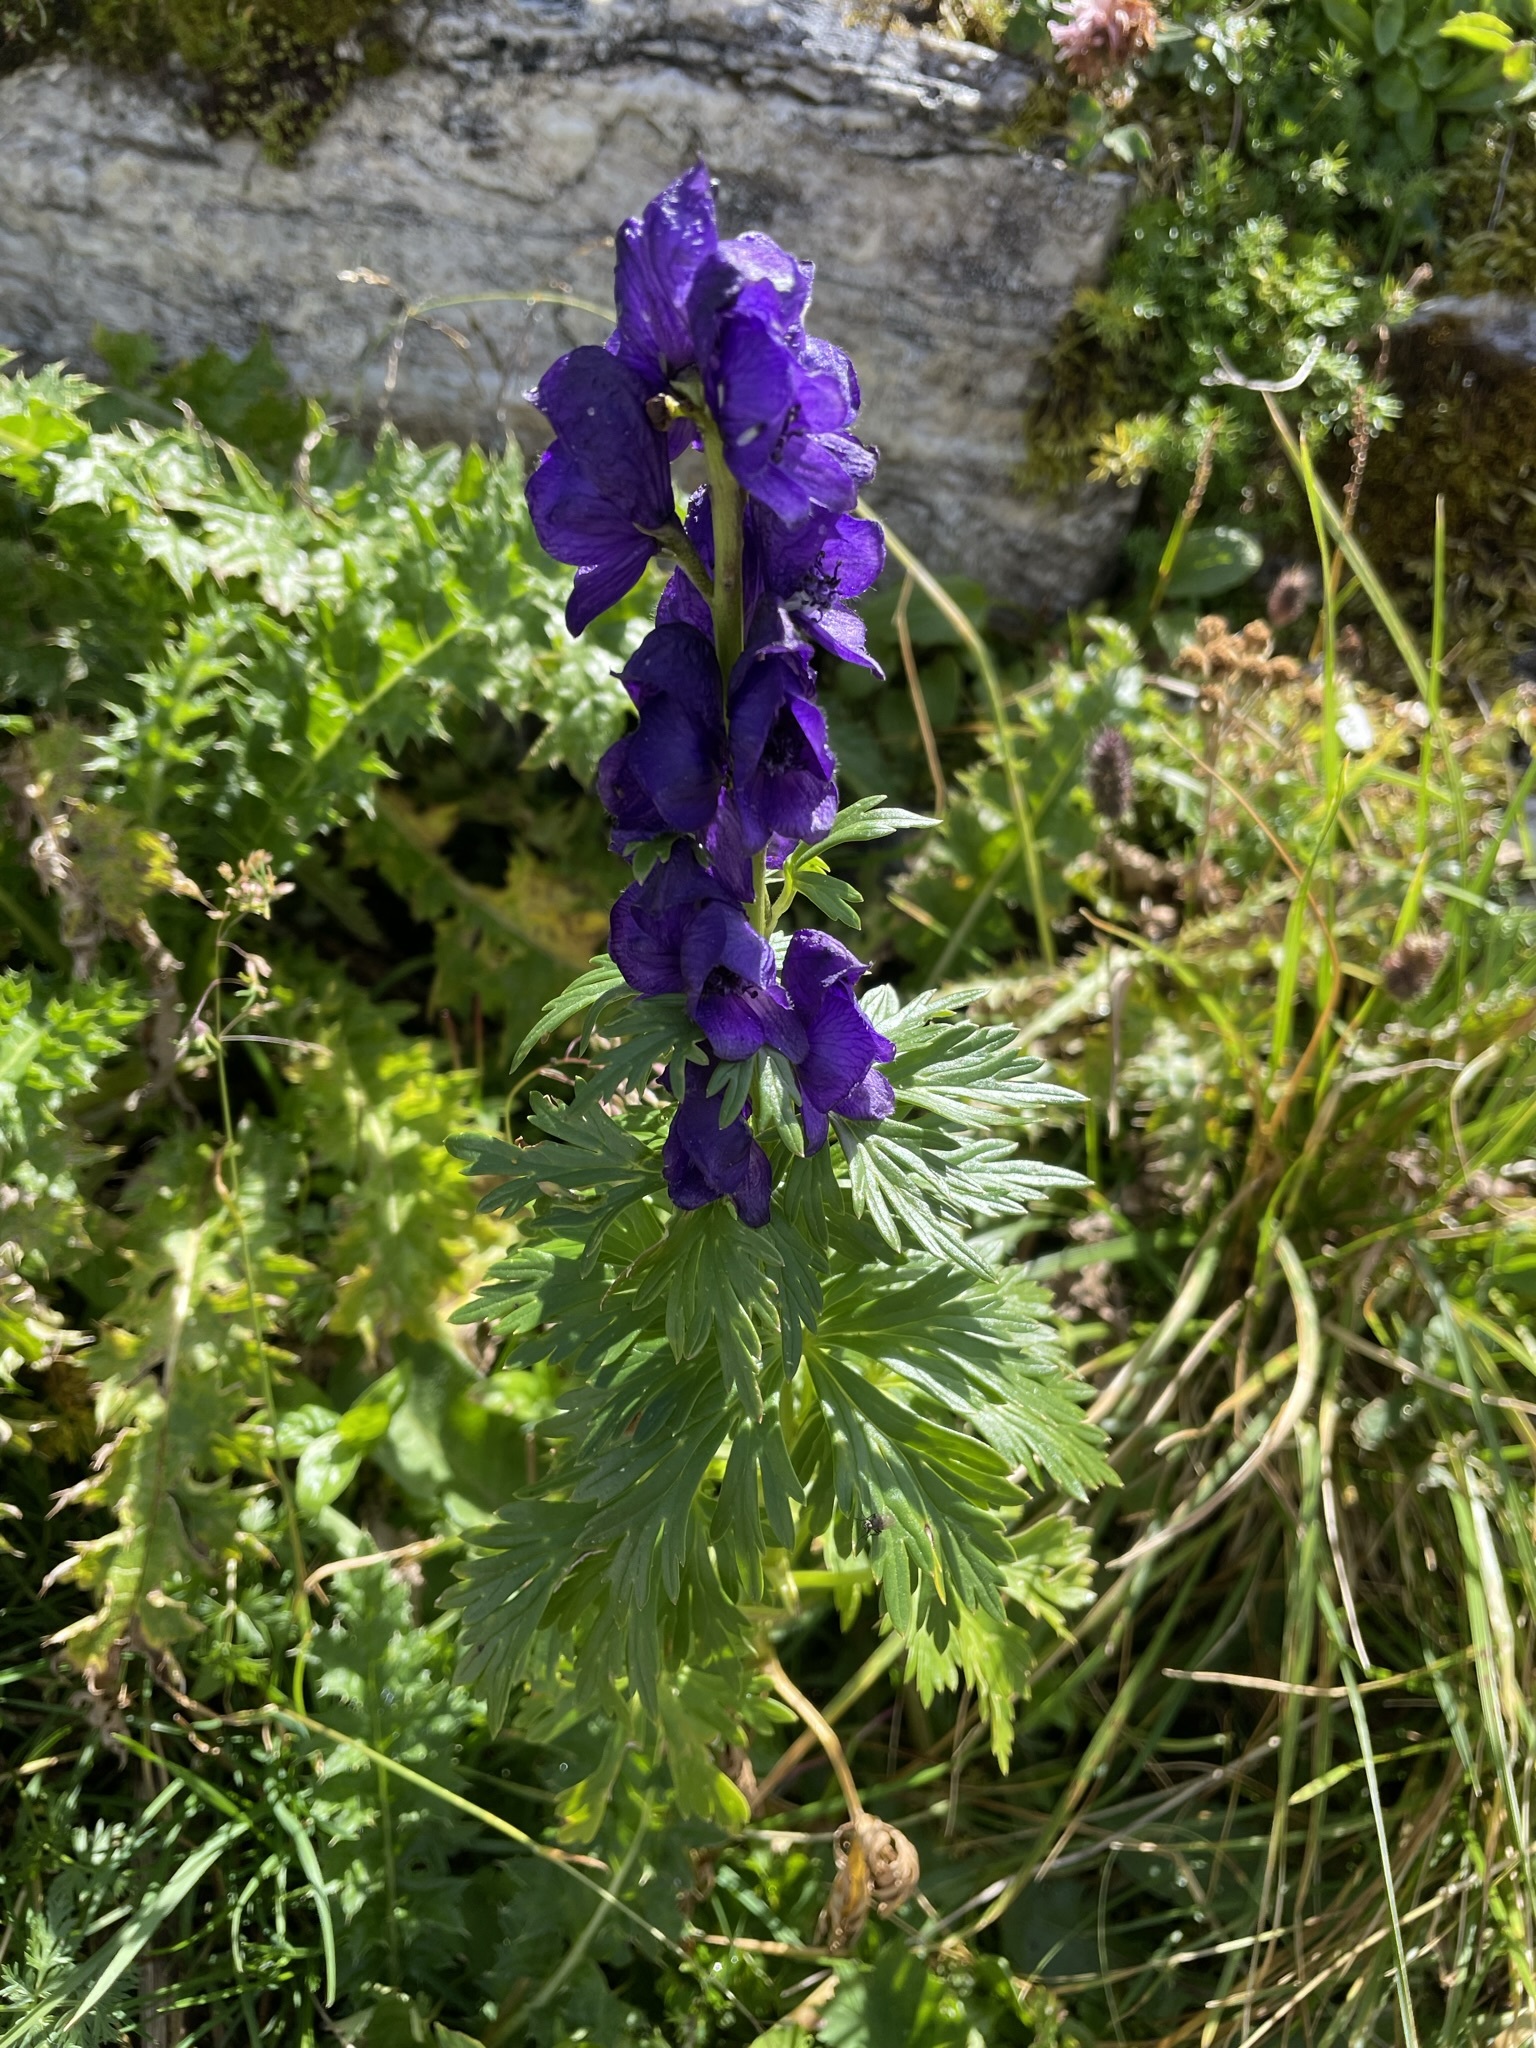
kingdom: Plantae
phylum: Tracheophyta
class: Magnoliopsida
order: Ranunculales
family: Ranunculaceae
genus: Aconitum
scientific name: Aconitum tauricum
